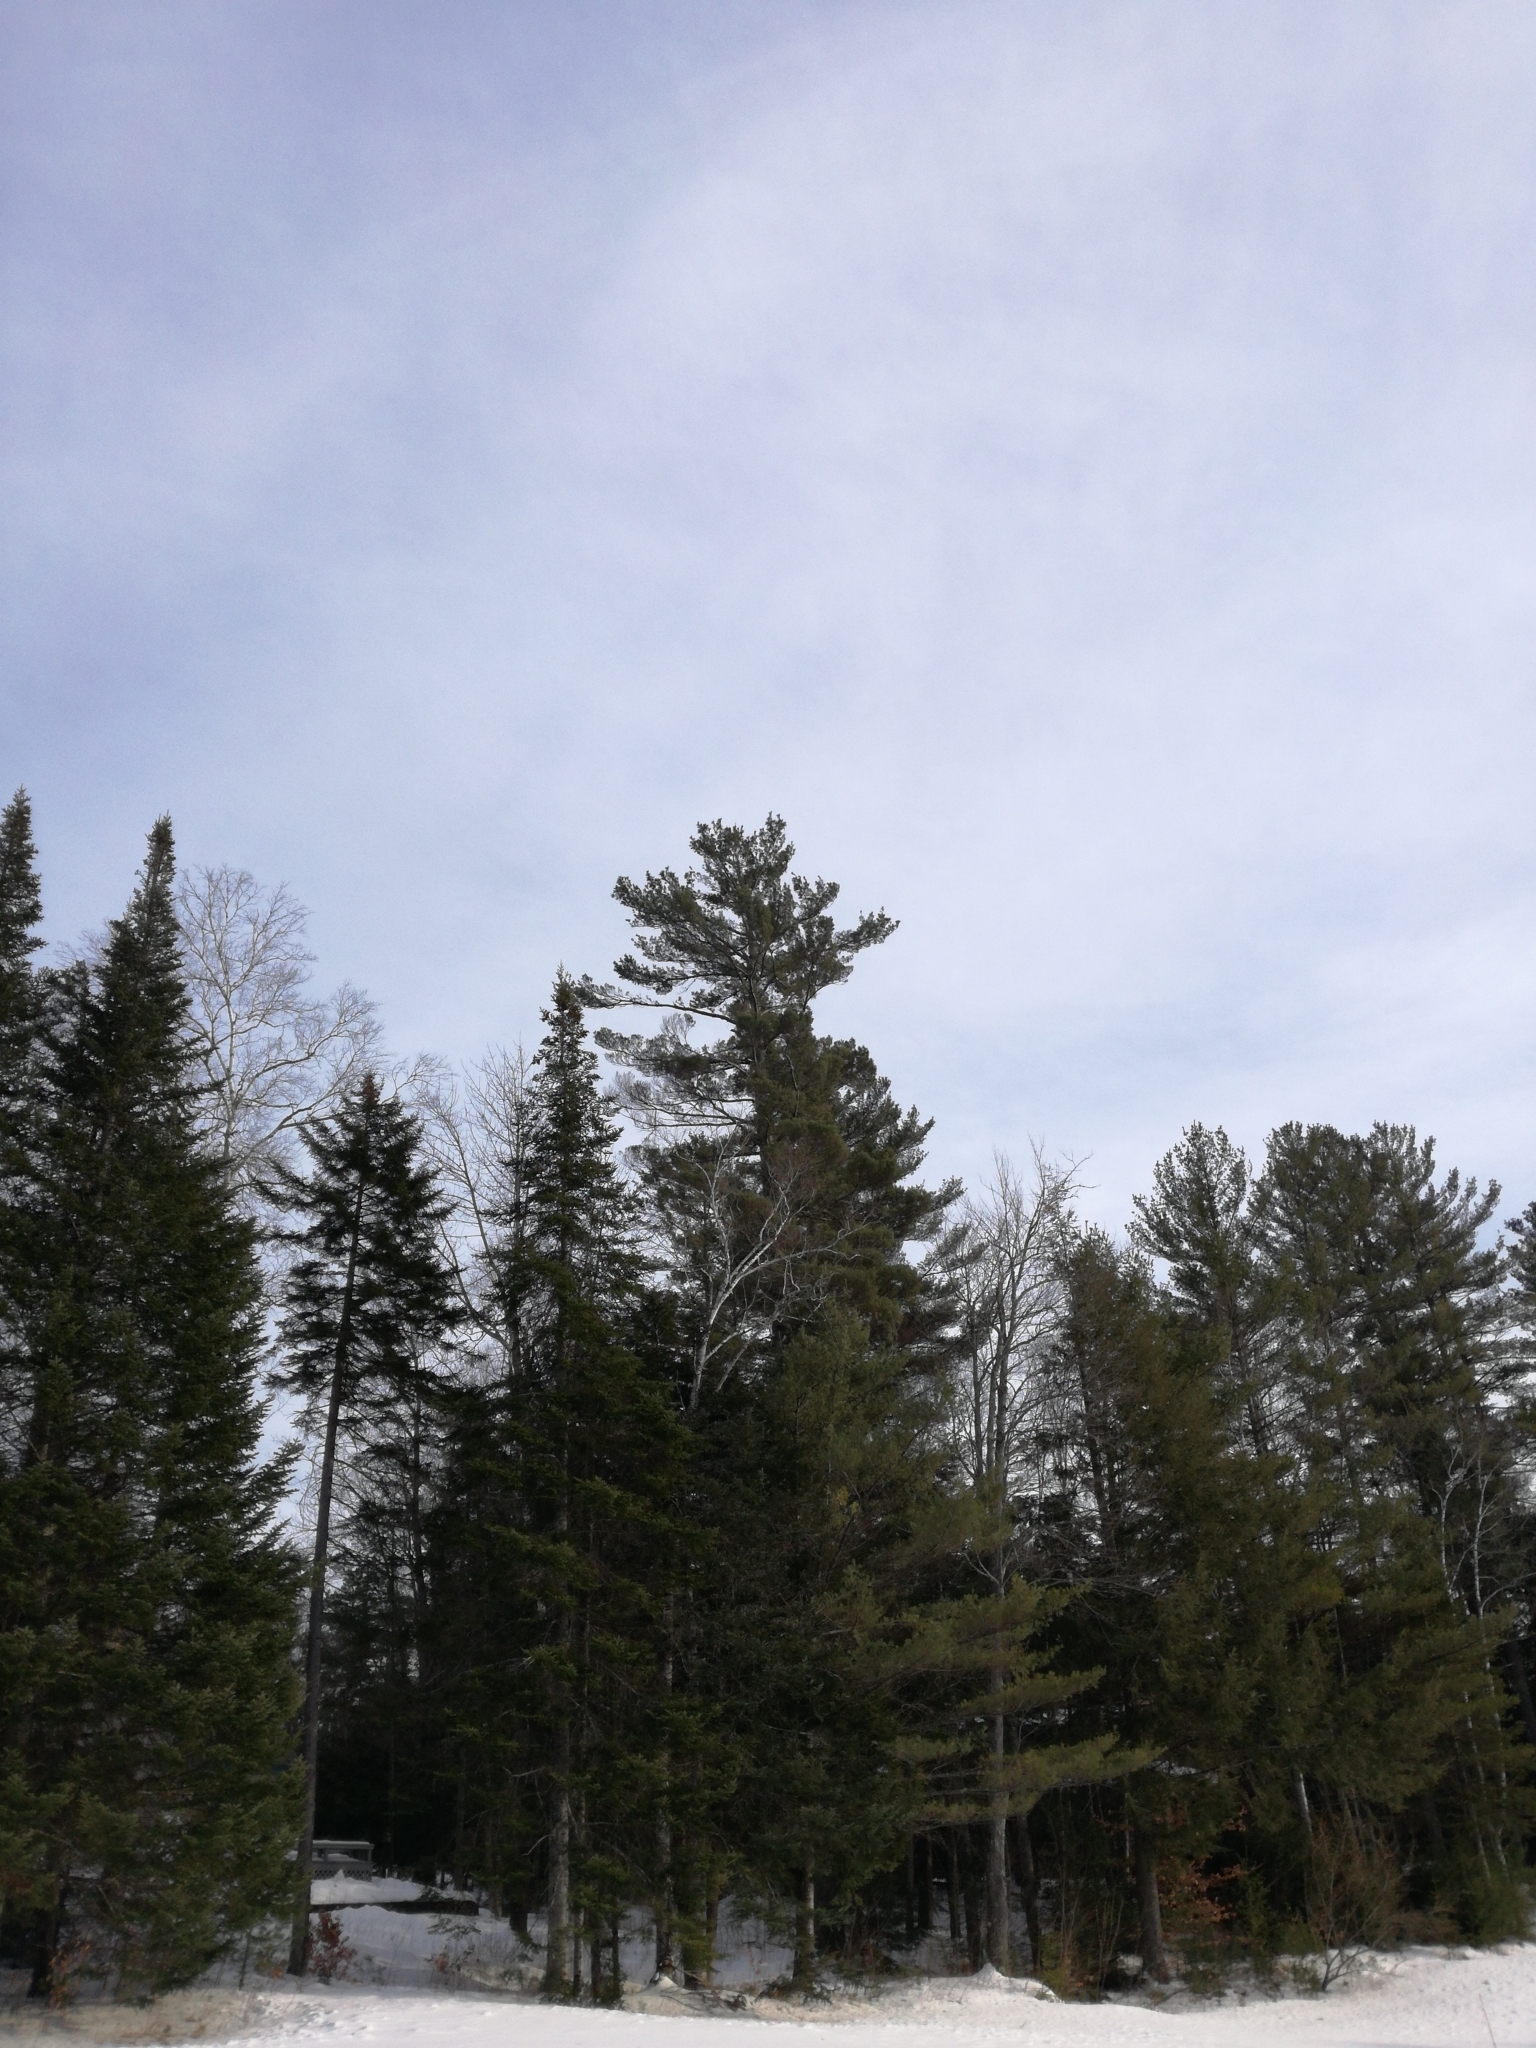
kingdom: Plantae
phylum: Tracheophyta
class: Pinopsida
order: Pinales
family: Pinaceae
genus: Pinus
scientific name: Pinus strobus
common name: Weymouth pine
